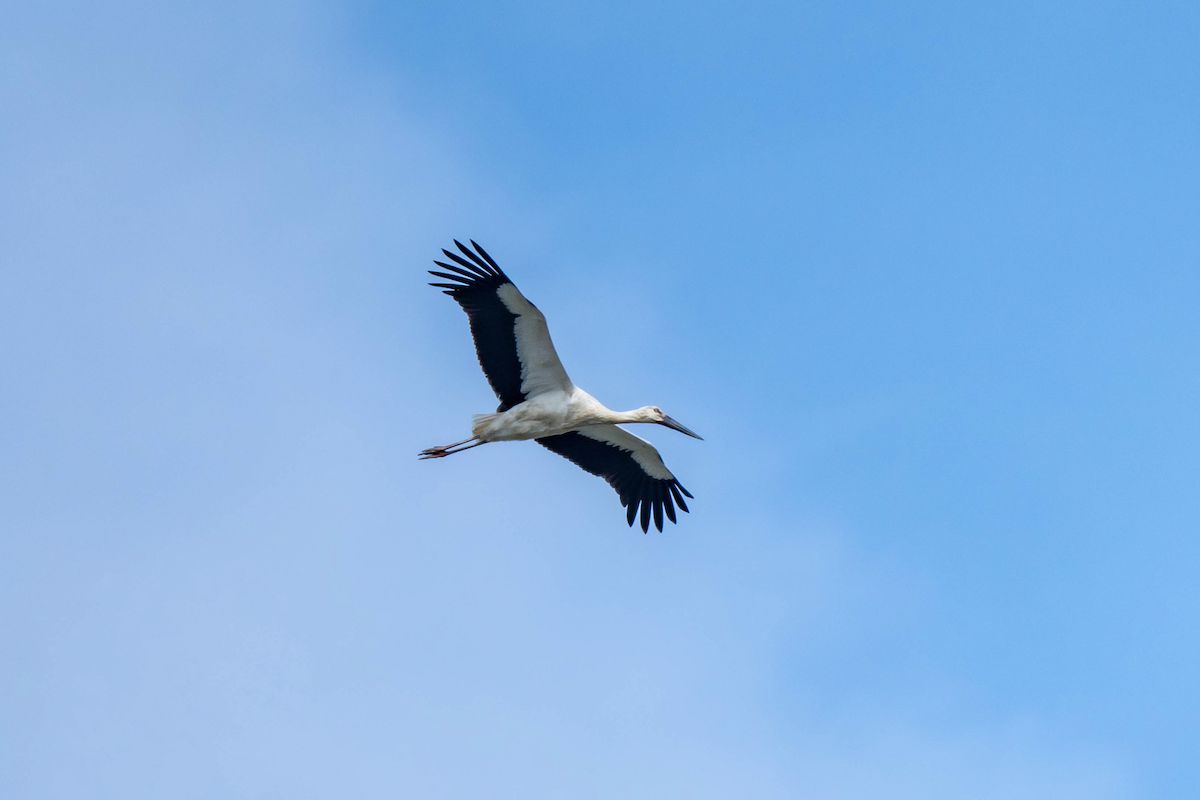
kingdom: Animalia
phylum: Chordata
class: Aves
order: Ciconiiformes
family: Ciconiidae
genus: Ciconia
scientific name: Ciconia boyciana
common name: Oriental stork
